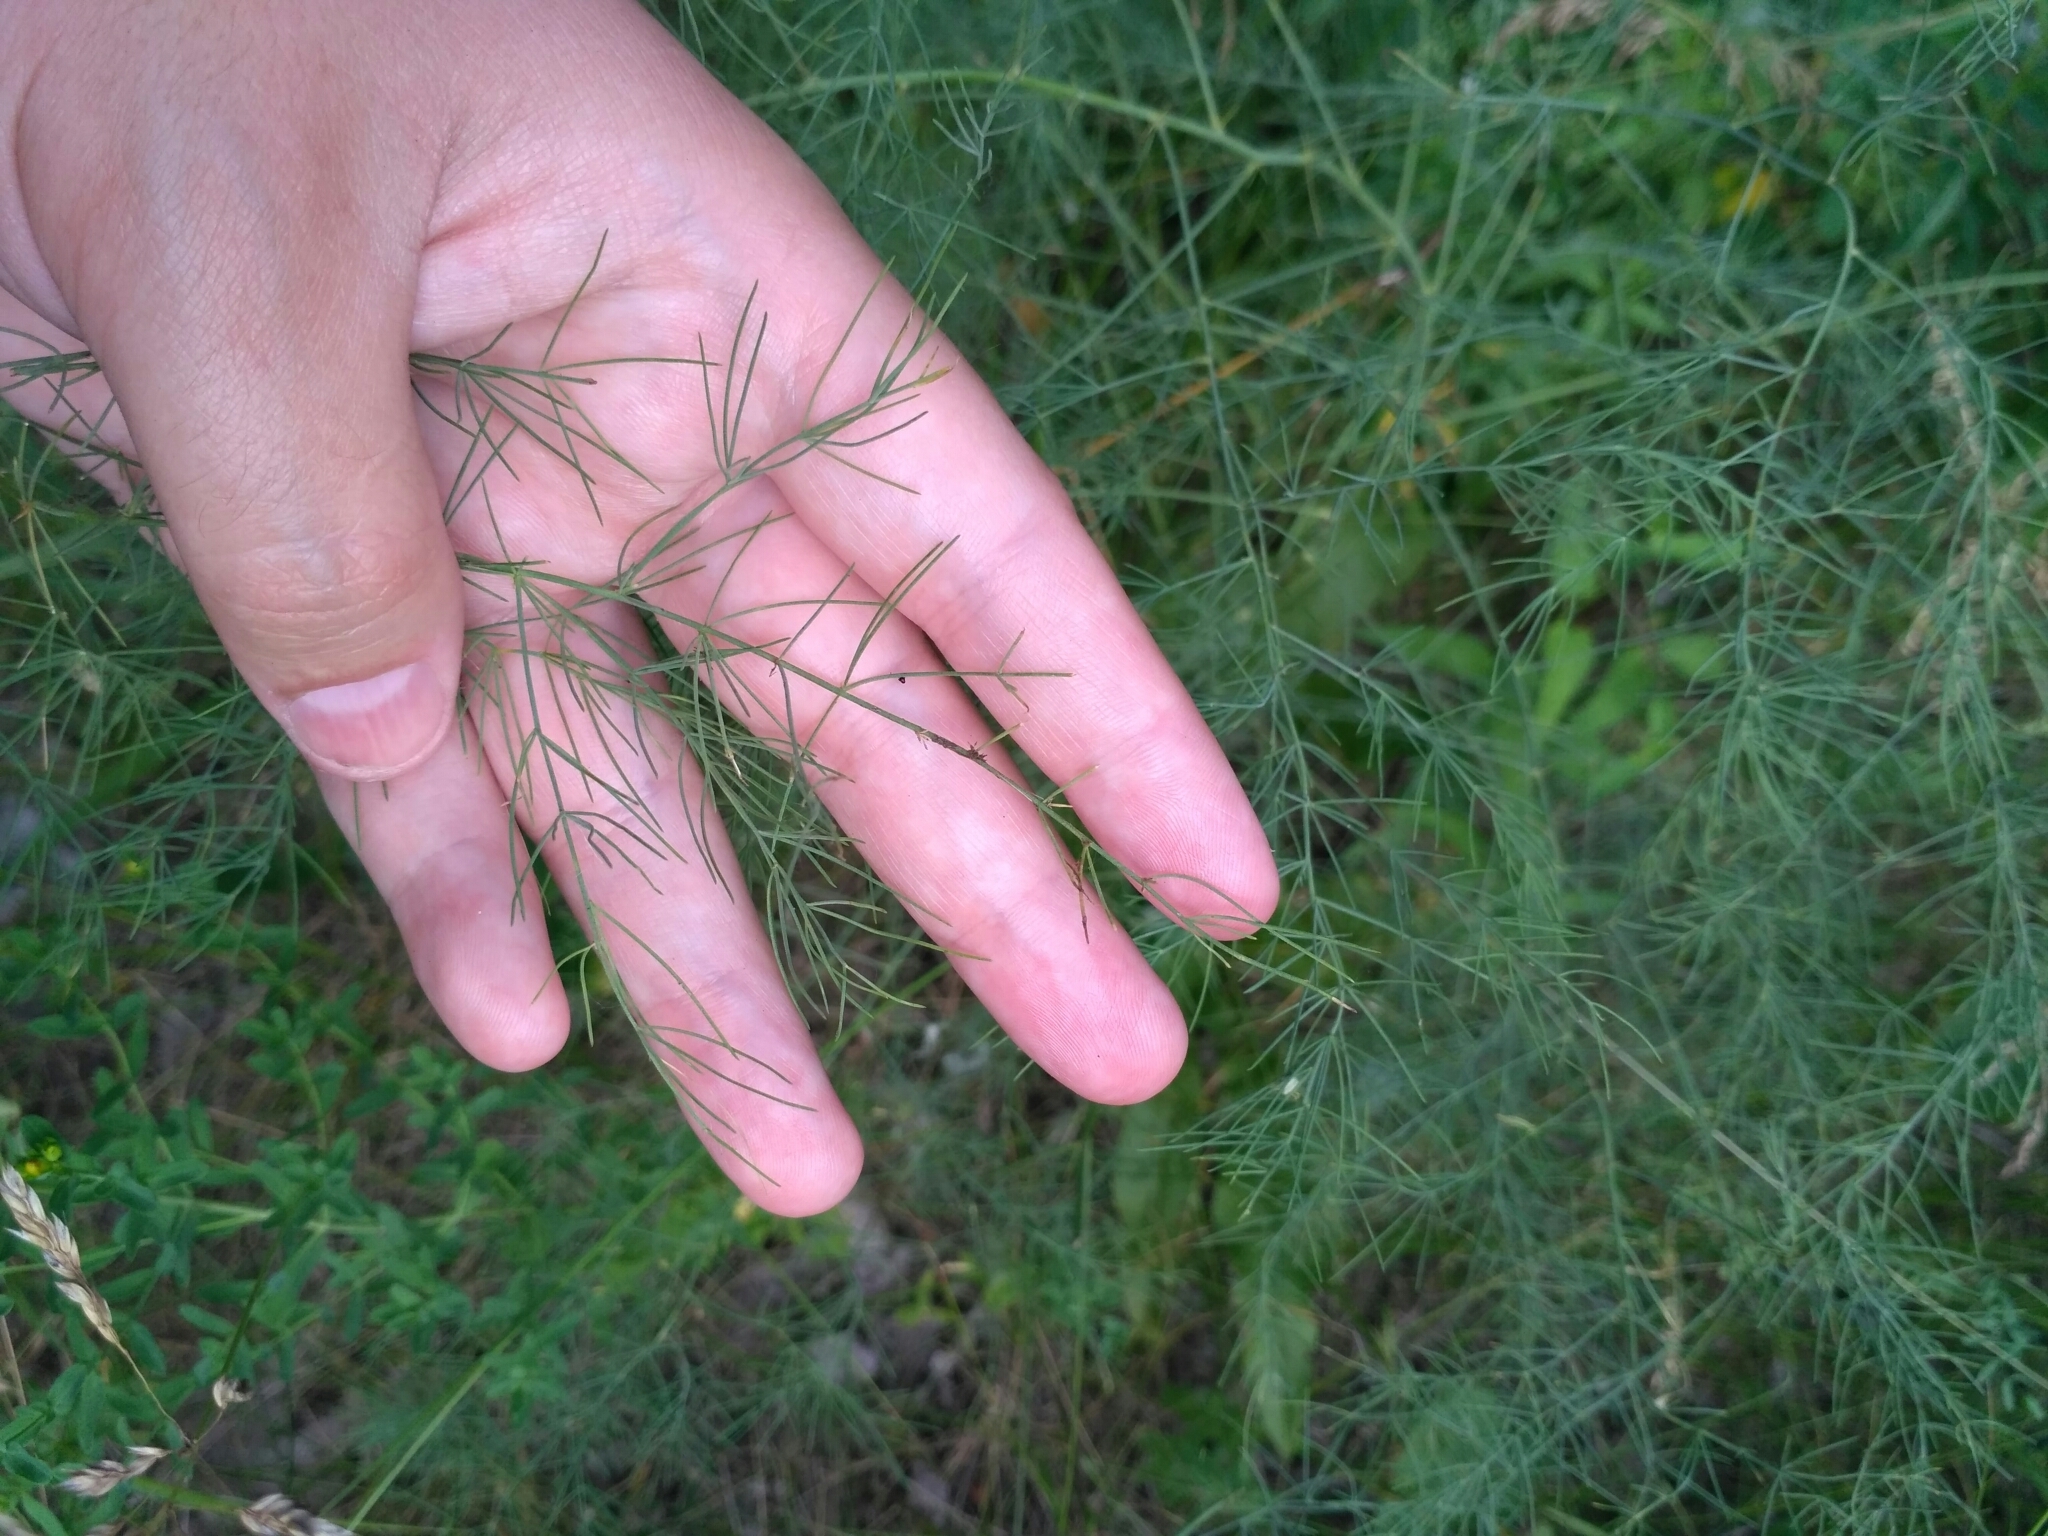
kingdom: Plantae
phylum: Tracheophyta
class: Liliopsida
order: Asparagales
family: Asparagaceae
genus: Asparagus
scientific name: Asparagus officinalis
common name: Garden asparagus
